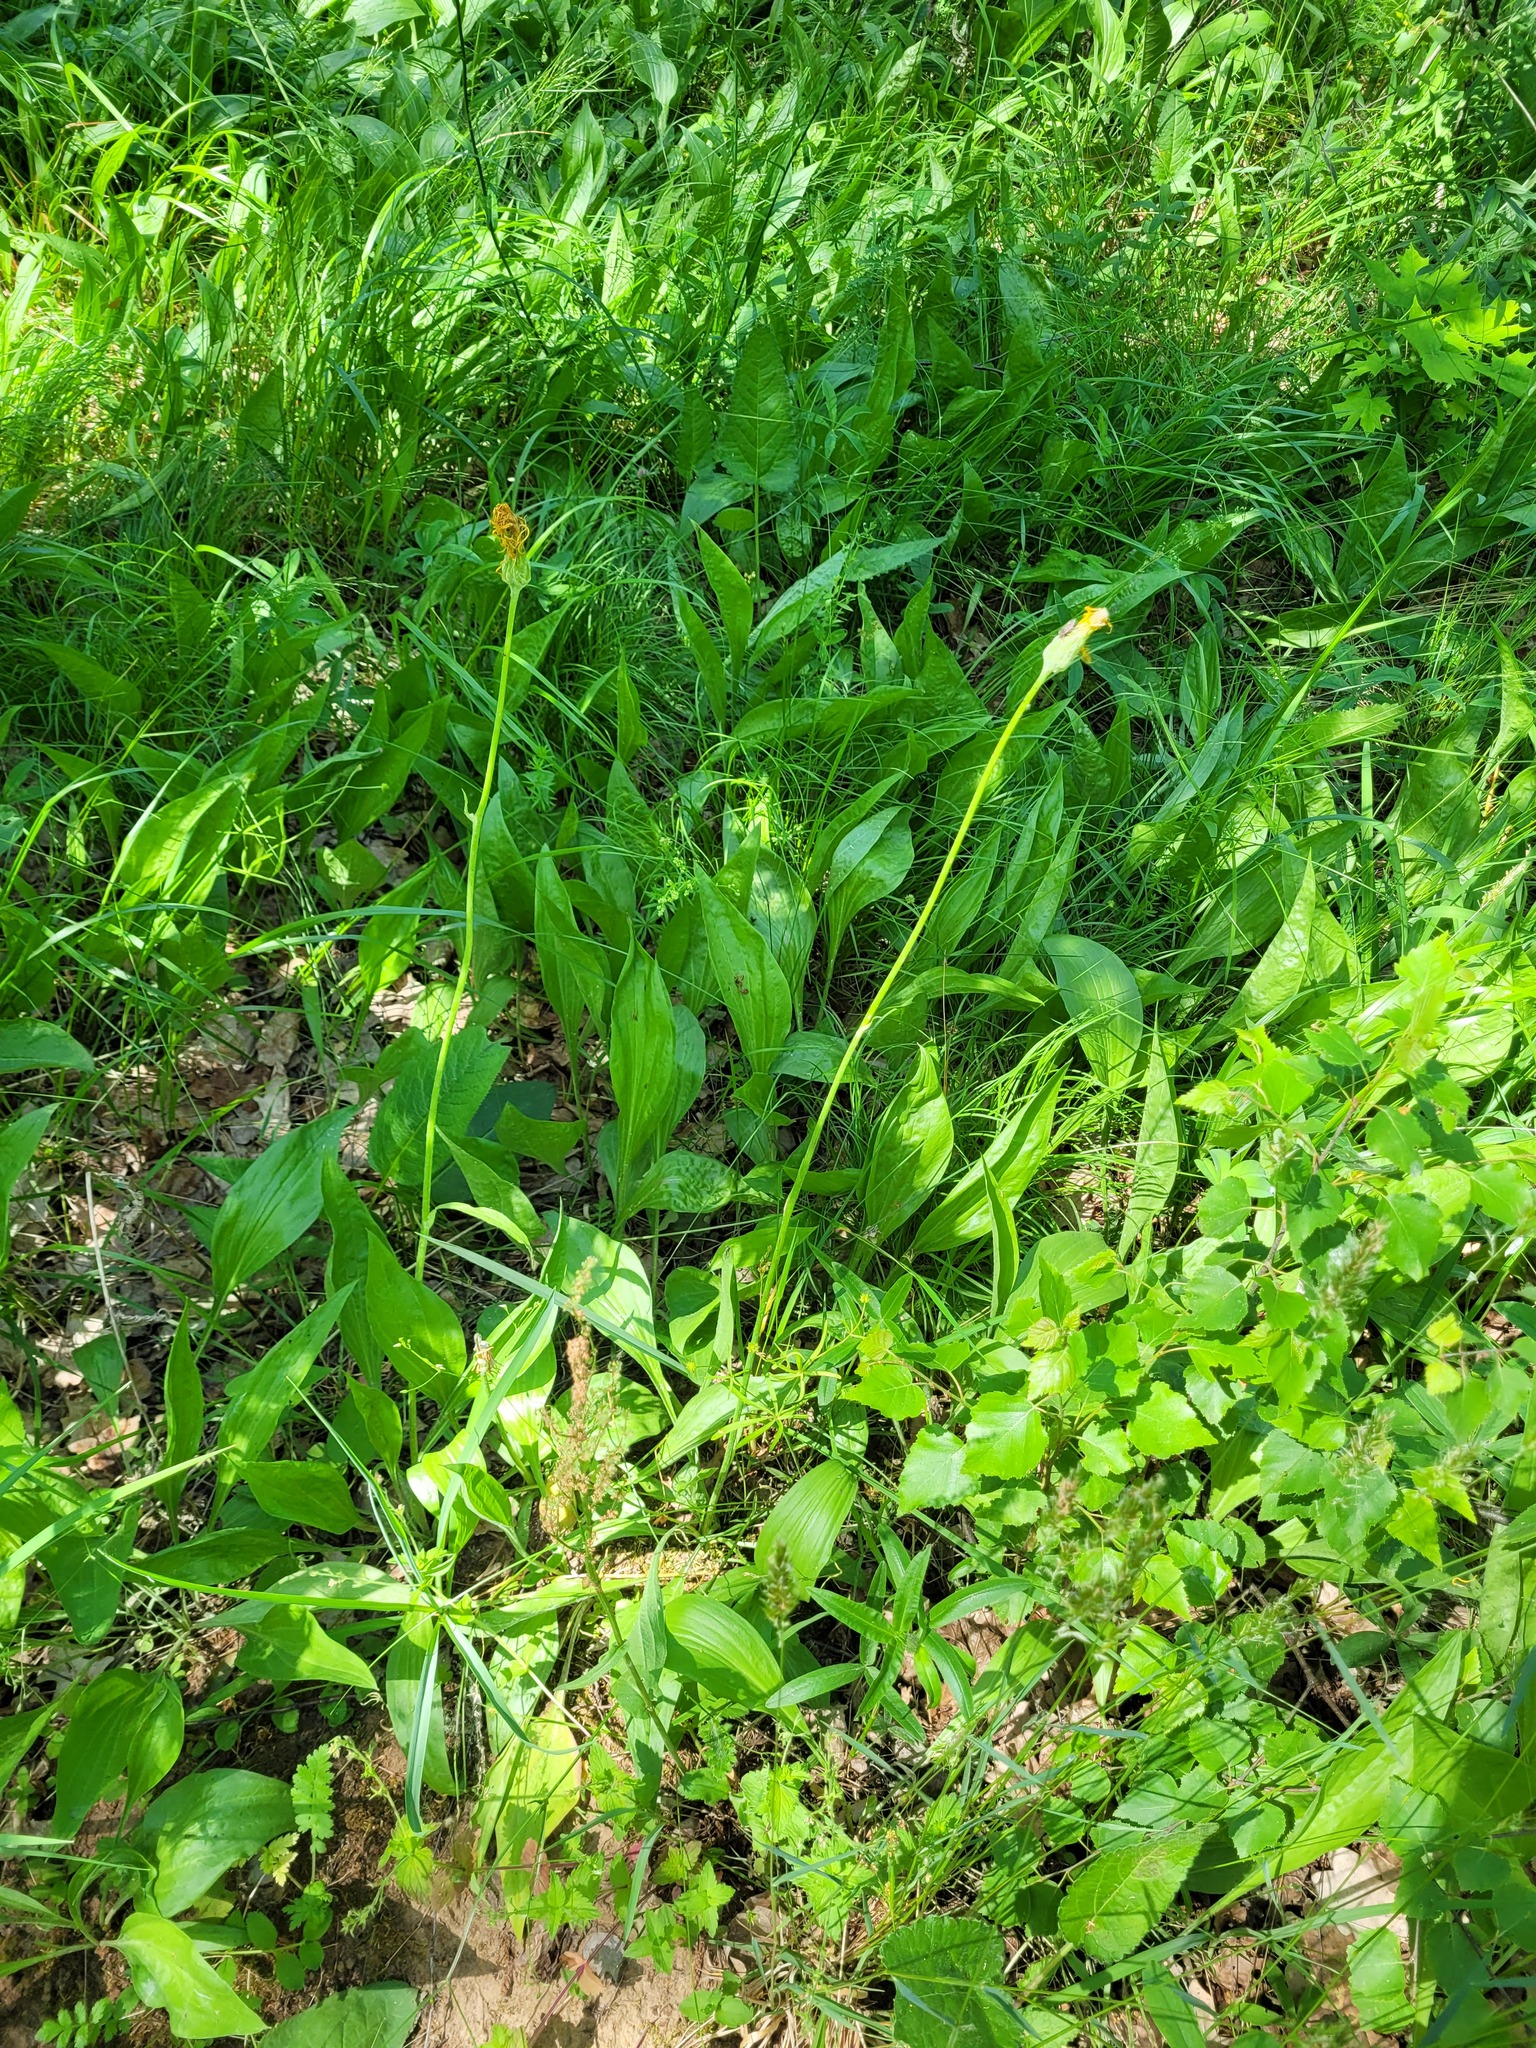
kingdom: Plantae
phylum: Tracheophyta
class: Magnoliopsida
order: Asterales
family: Asteraceae
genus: Scorzonera
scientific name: Scorzonera humilis
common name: Viper's-grass
